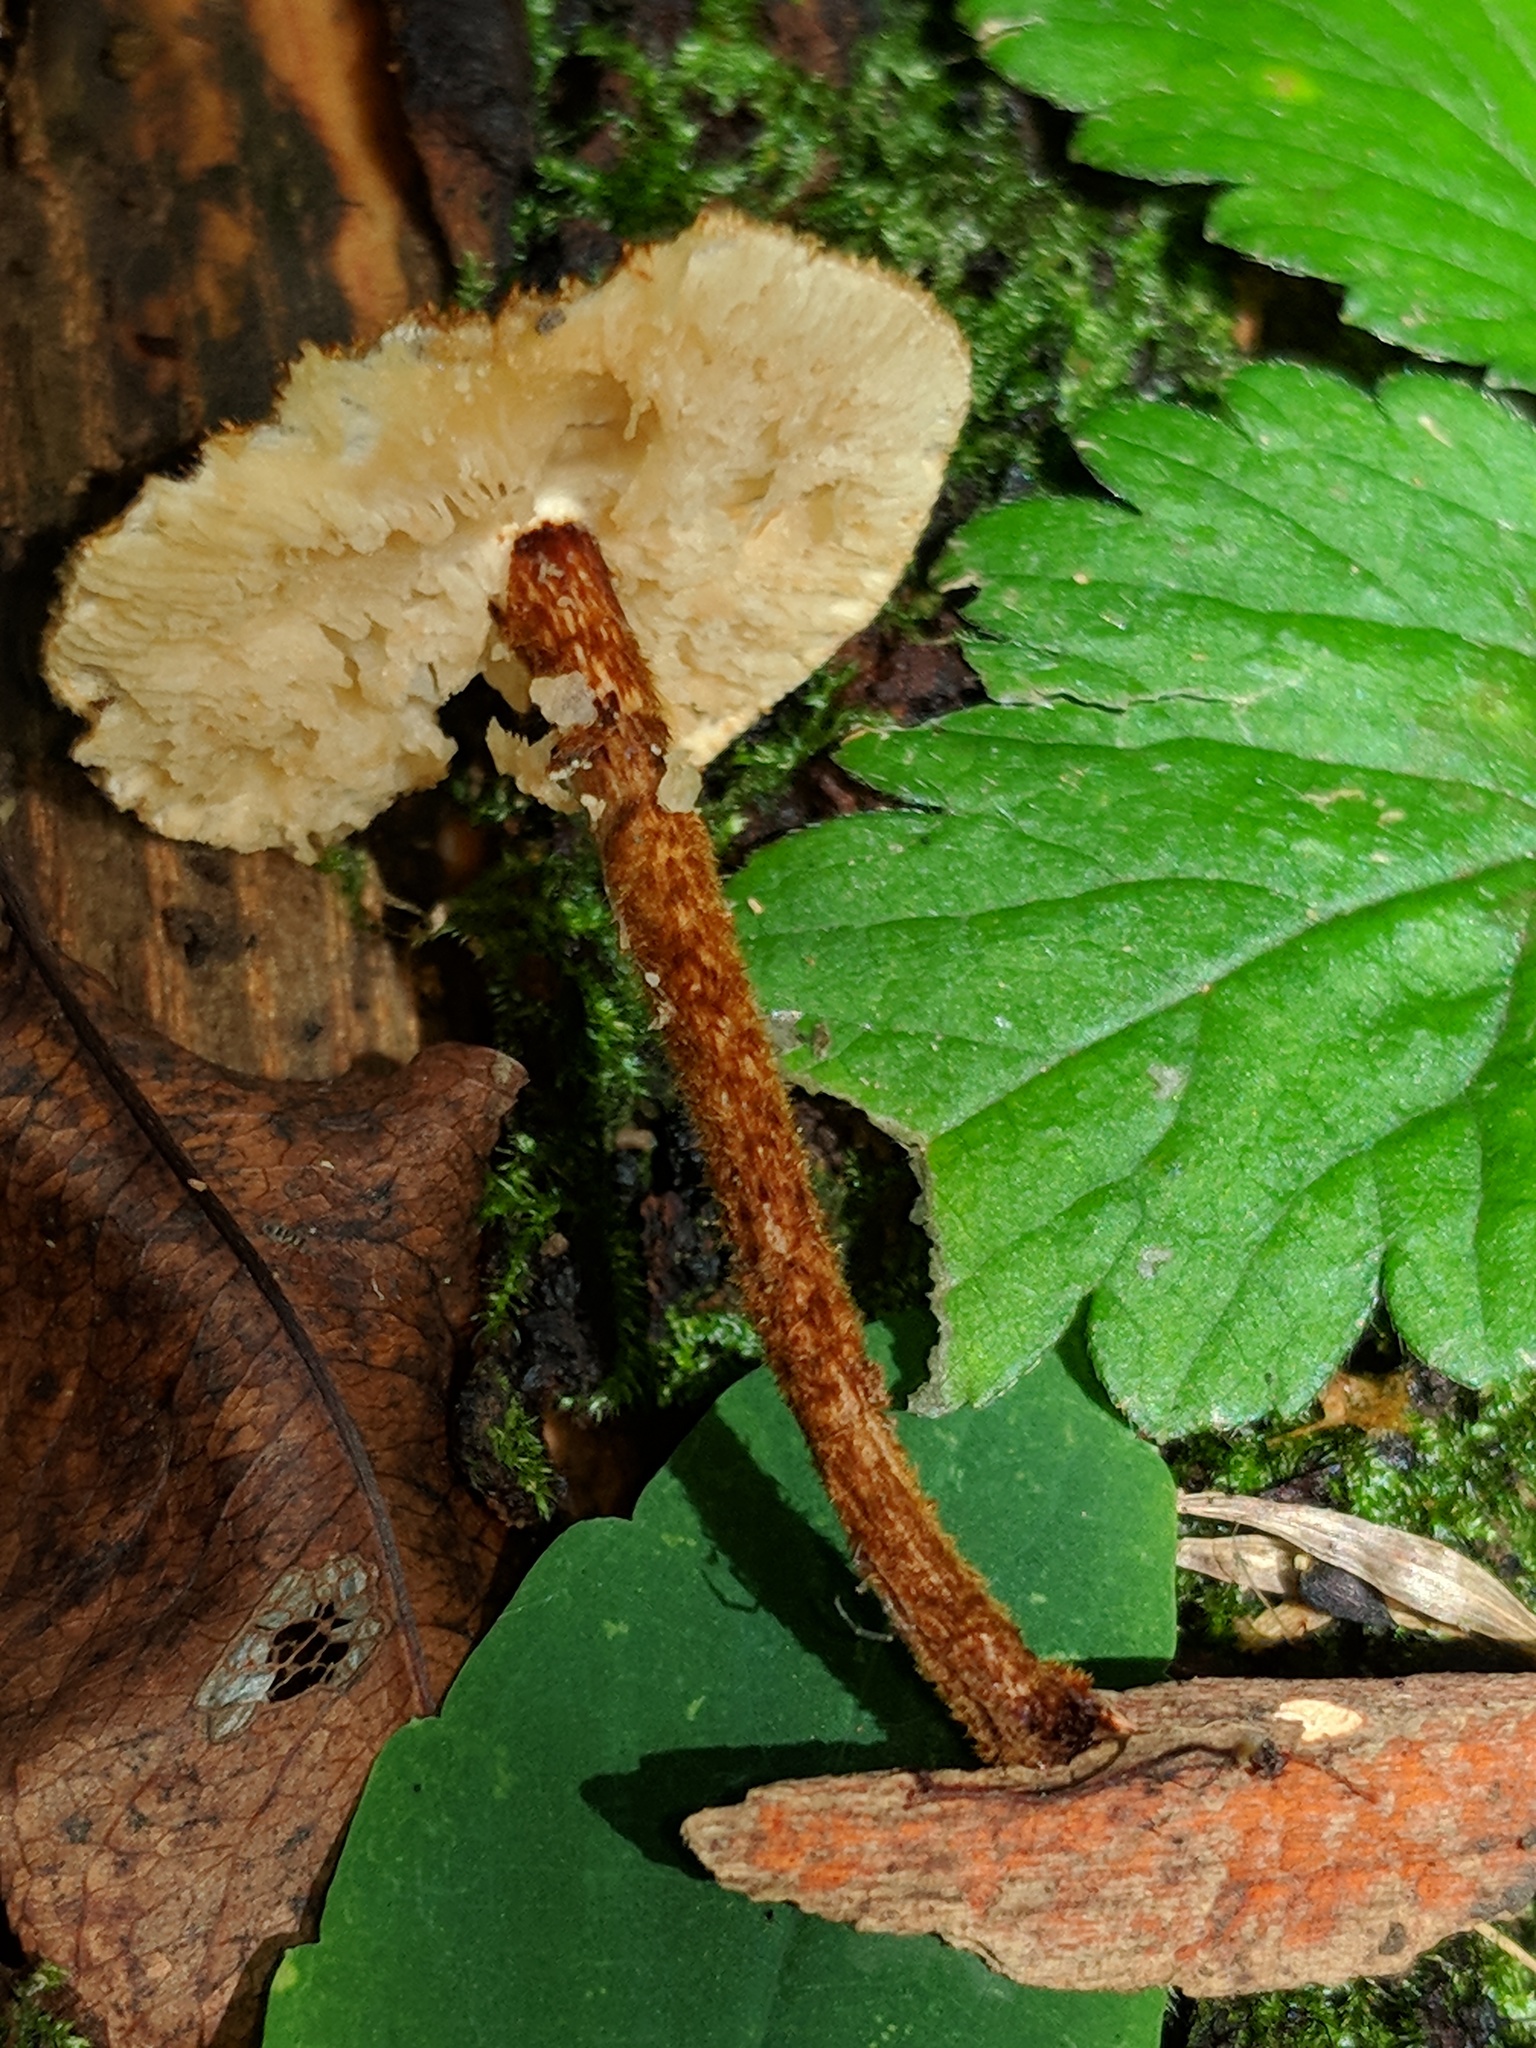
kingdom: Fungi
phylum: Basidiomycota
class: Agaricomycetes
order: Agaricales
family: Tricholomataceae
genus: Collybia
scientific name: Collybia zonata
